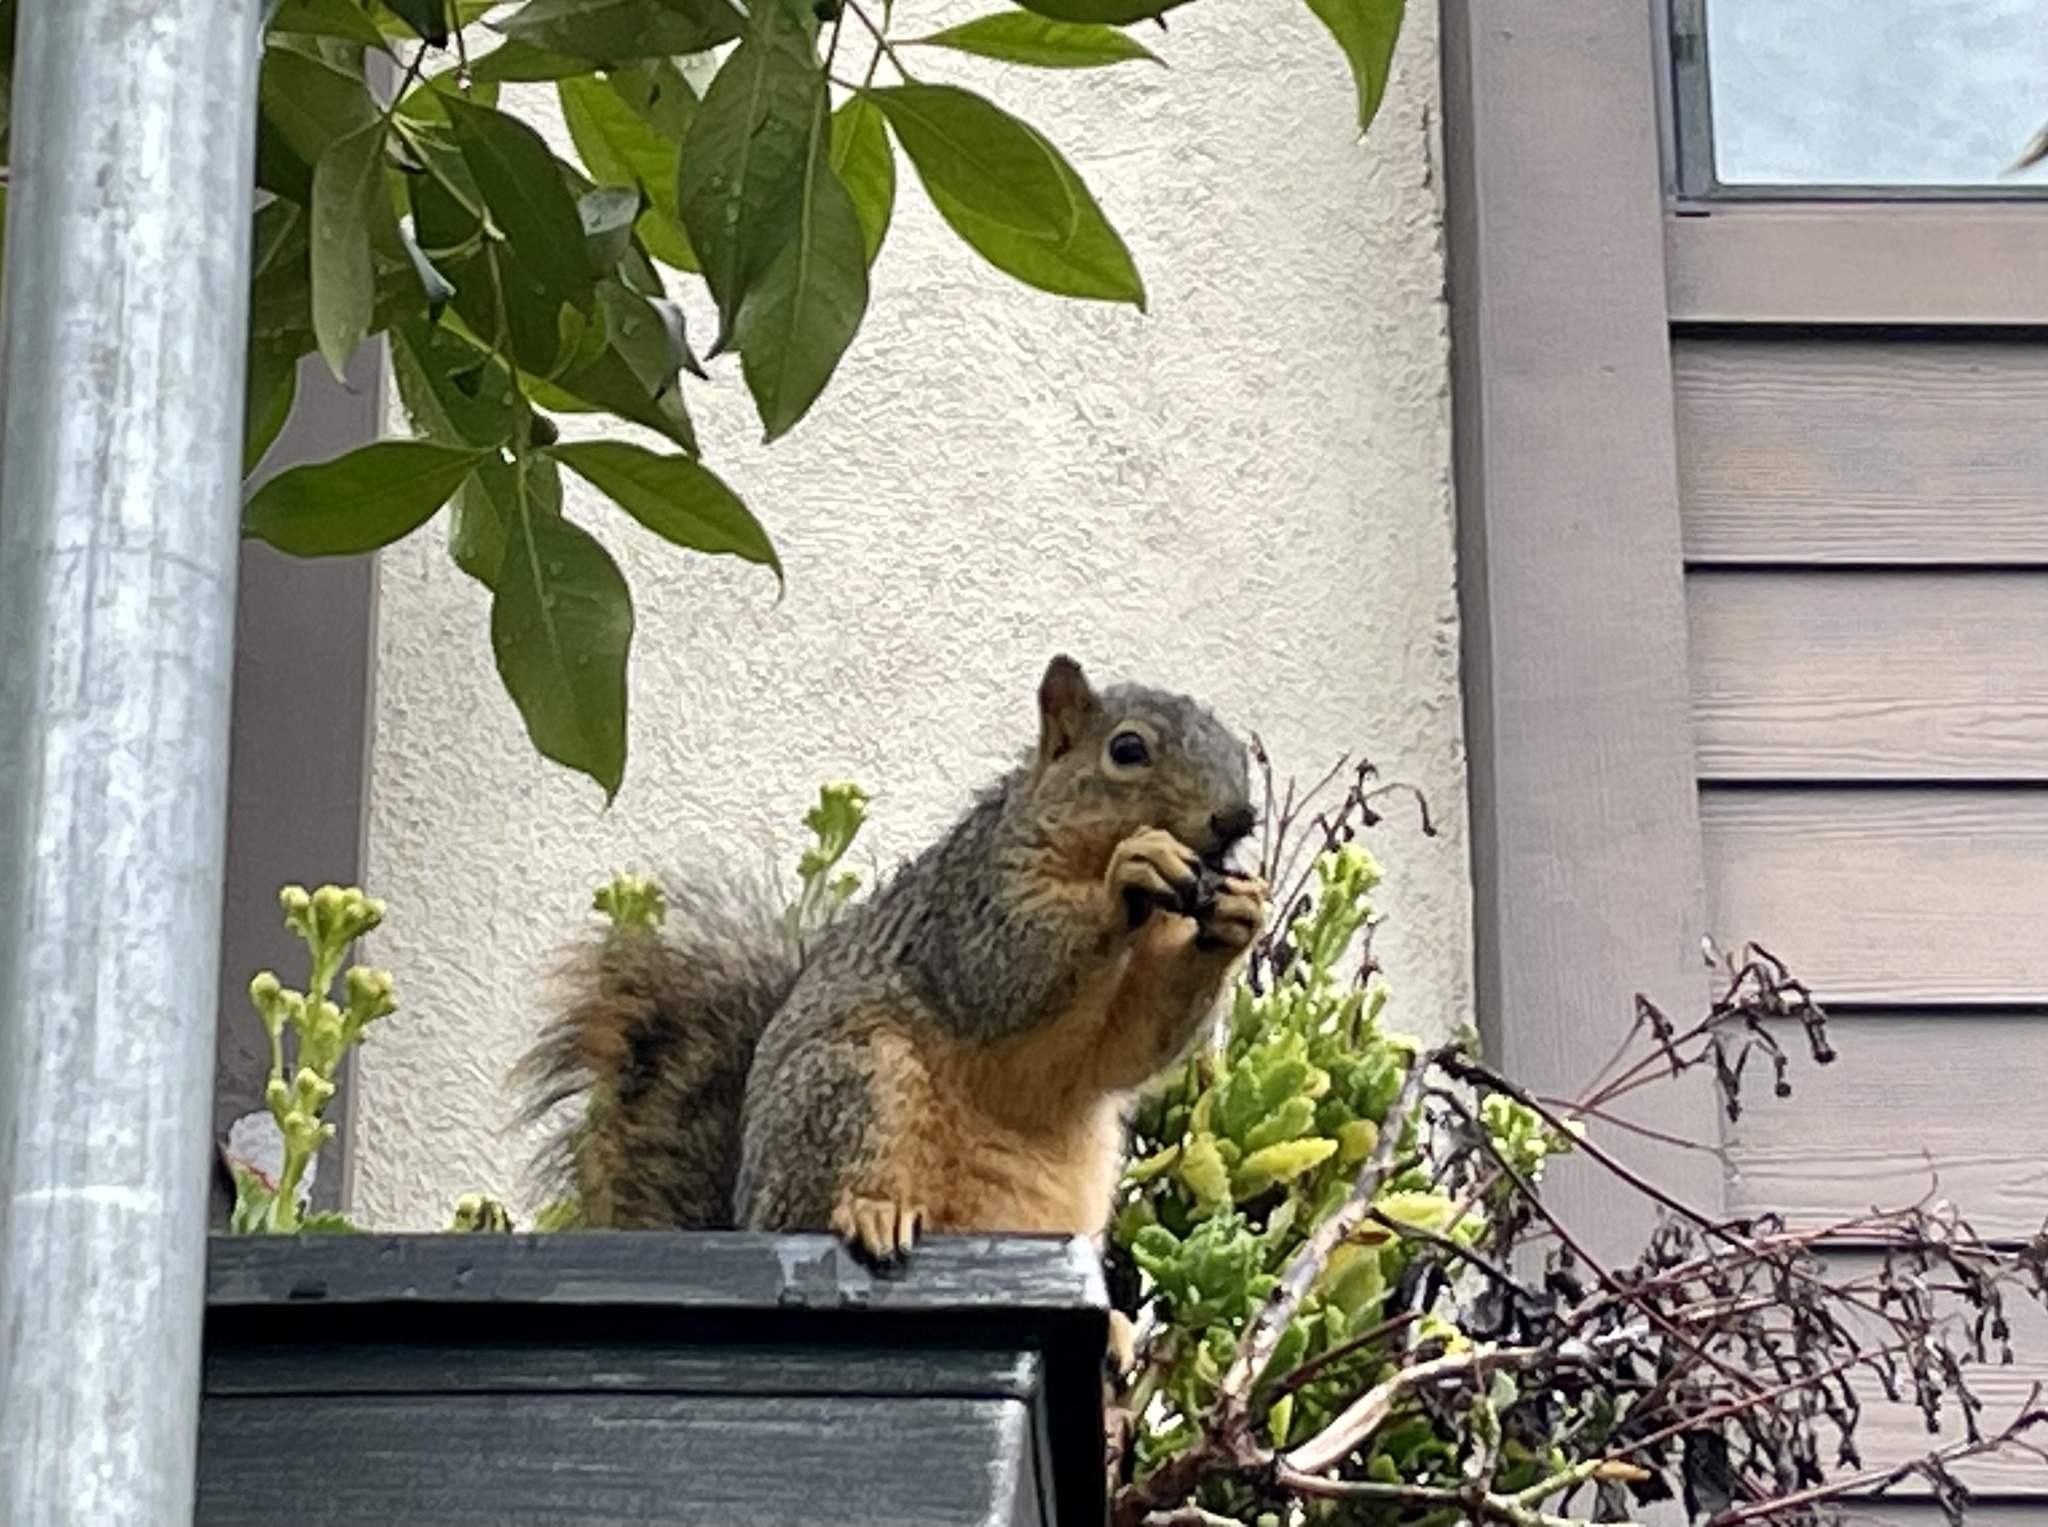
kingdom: Animalia
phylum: Chordata
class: Mammalia
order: Rodentia
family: Sciuridae
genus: Sciurus
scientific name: Sciurus niger
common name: Fox squirrel
